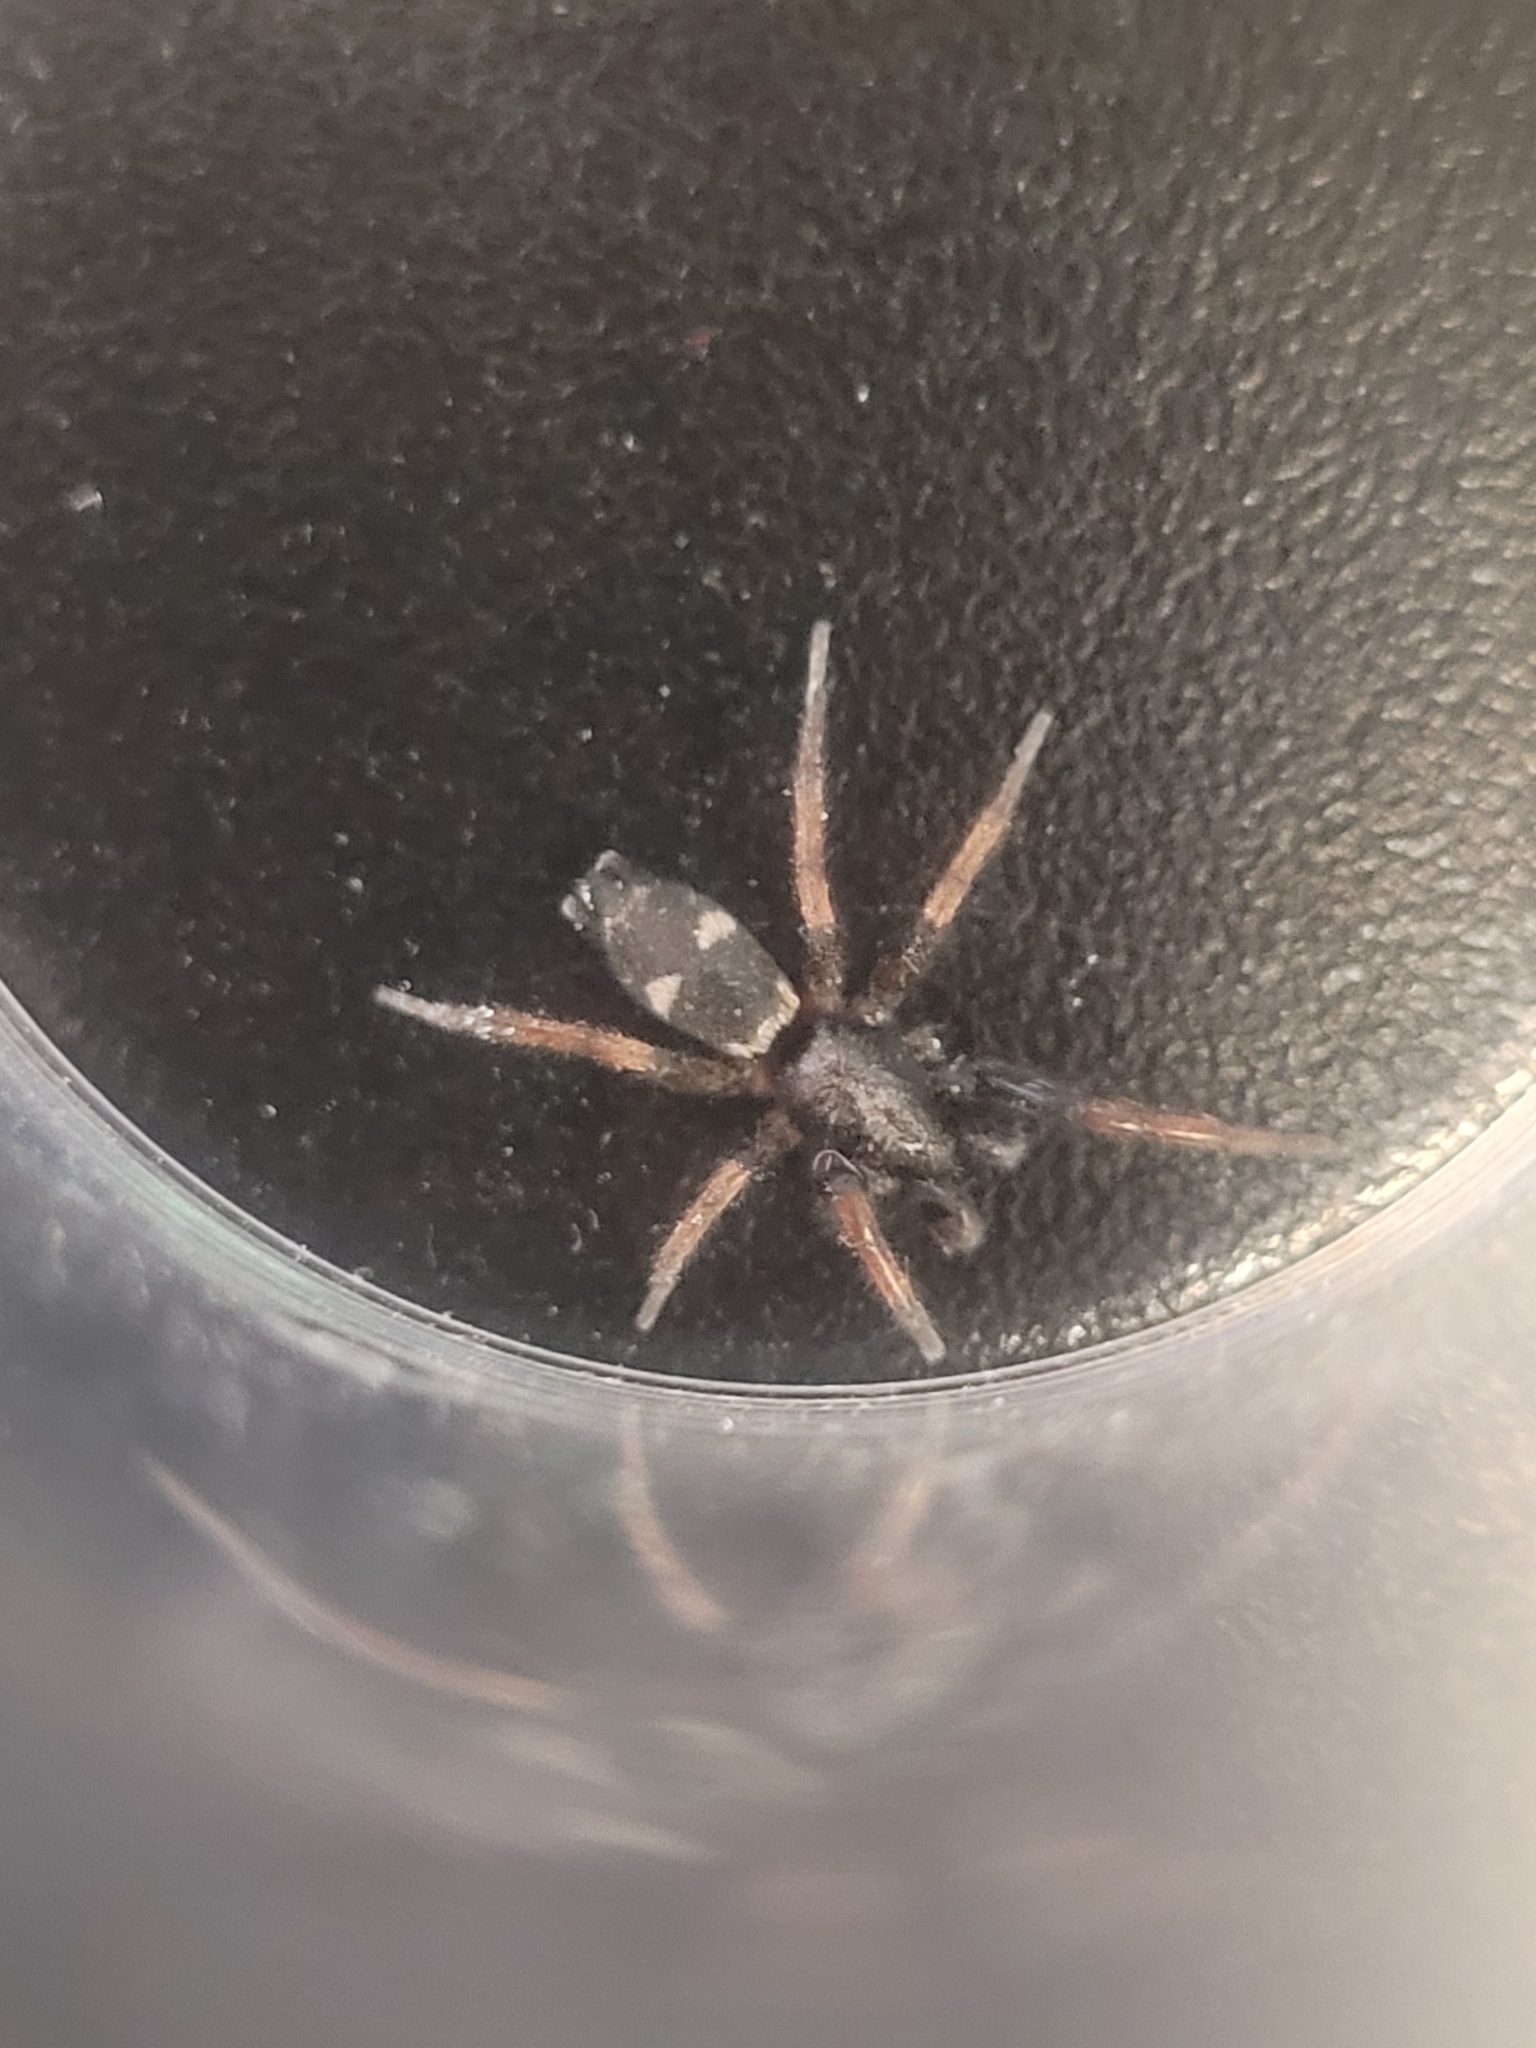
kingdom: Animalia
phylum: Arthropoda
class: Arachnida
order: Araneae
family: Gnaphosidae
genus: Sergiolus
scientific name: Sergiolus montanus
